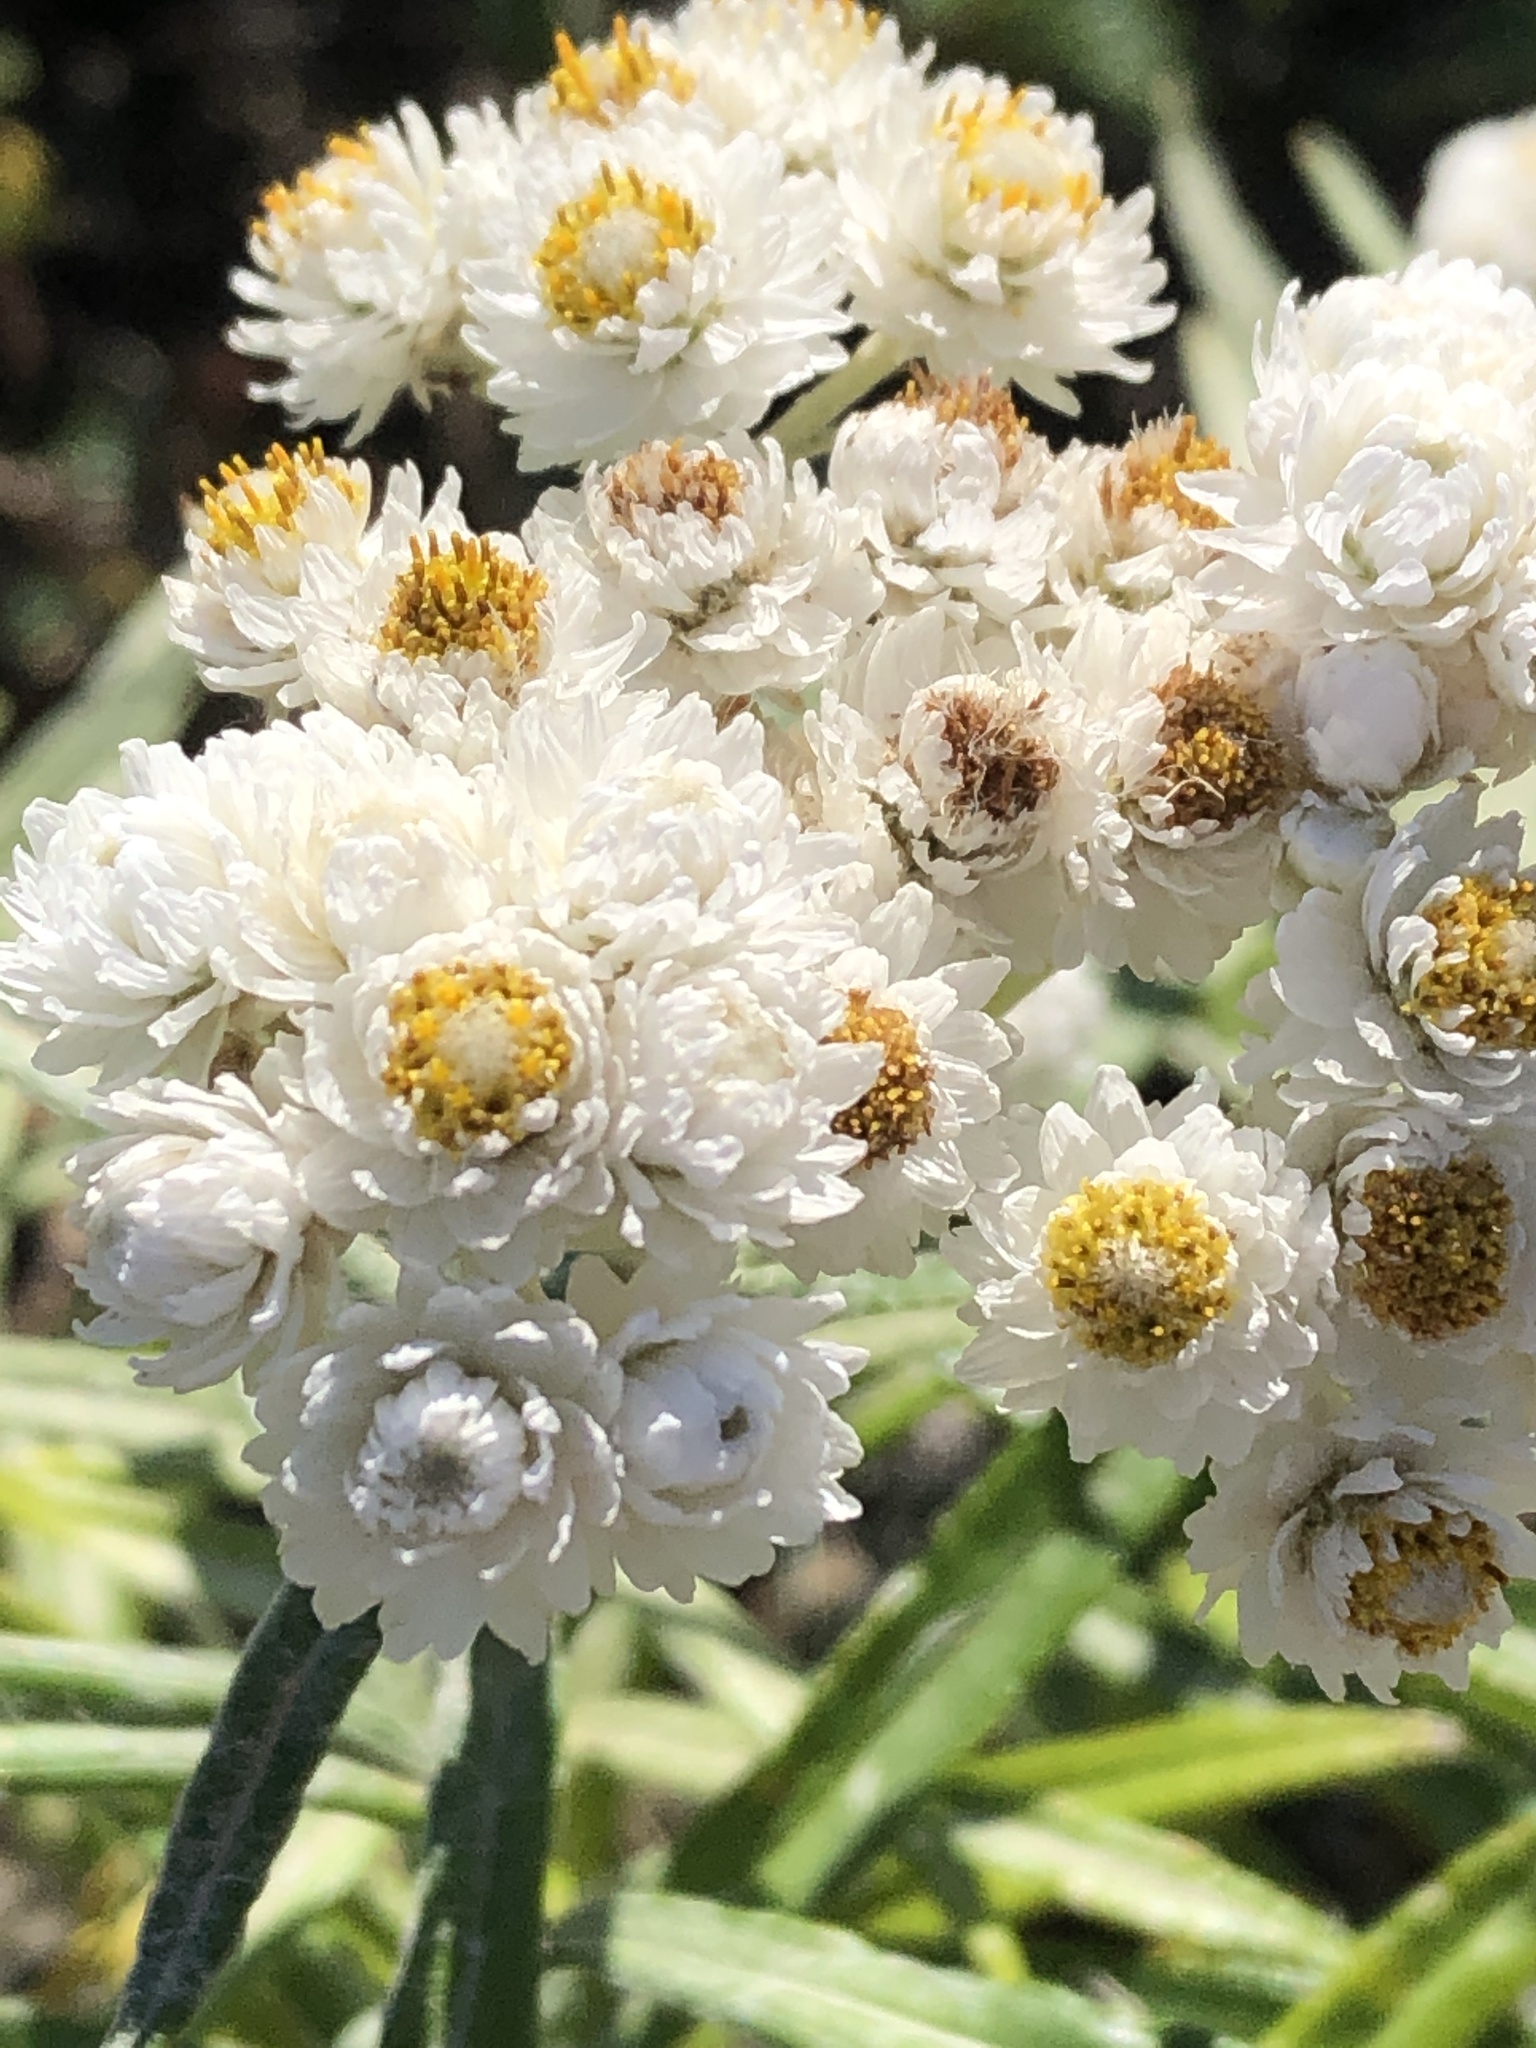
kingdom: Plantae
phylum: Tracheophyta
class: Magnoliopsida
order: Asterales
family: Asteraceae
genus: Anaphalis
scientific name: Anaphalis margaritacea
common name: Pearly everlasting
